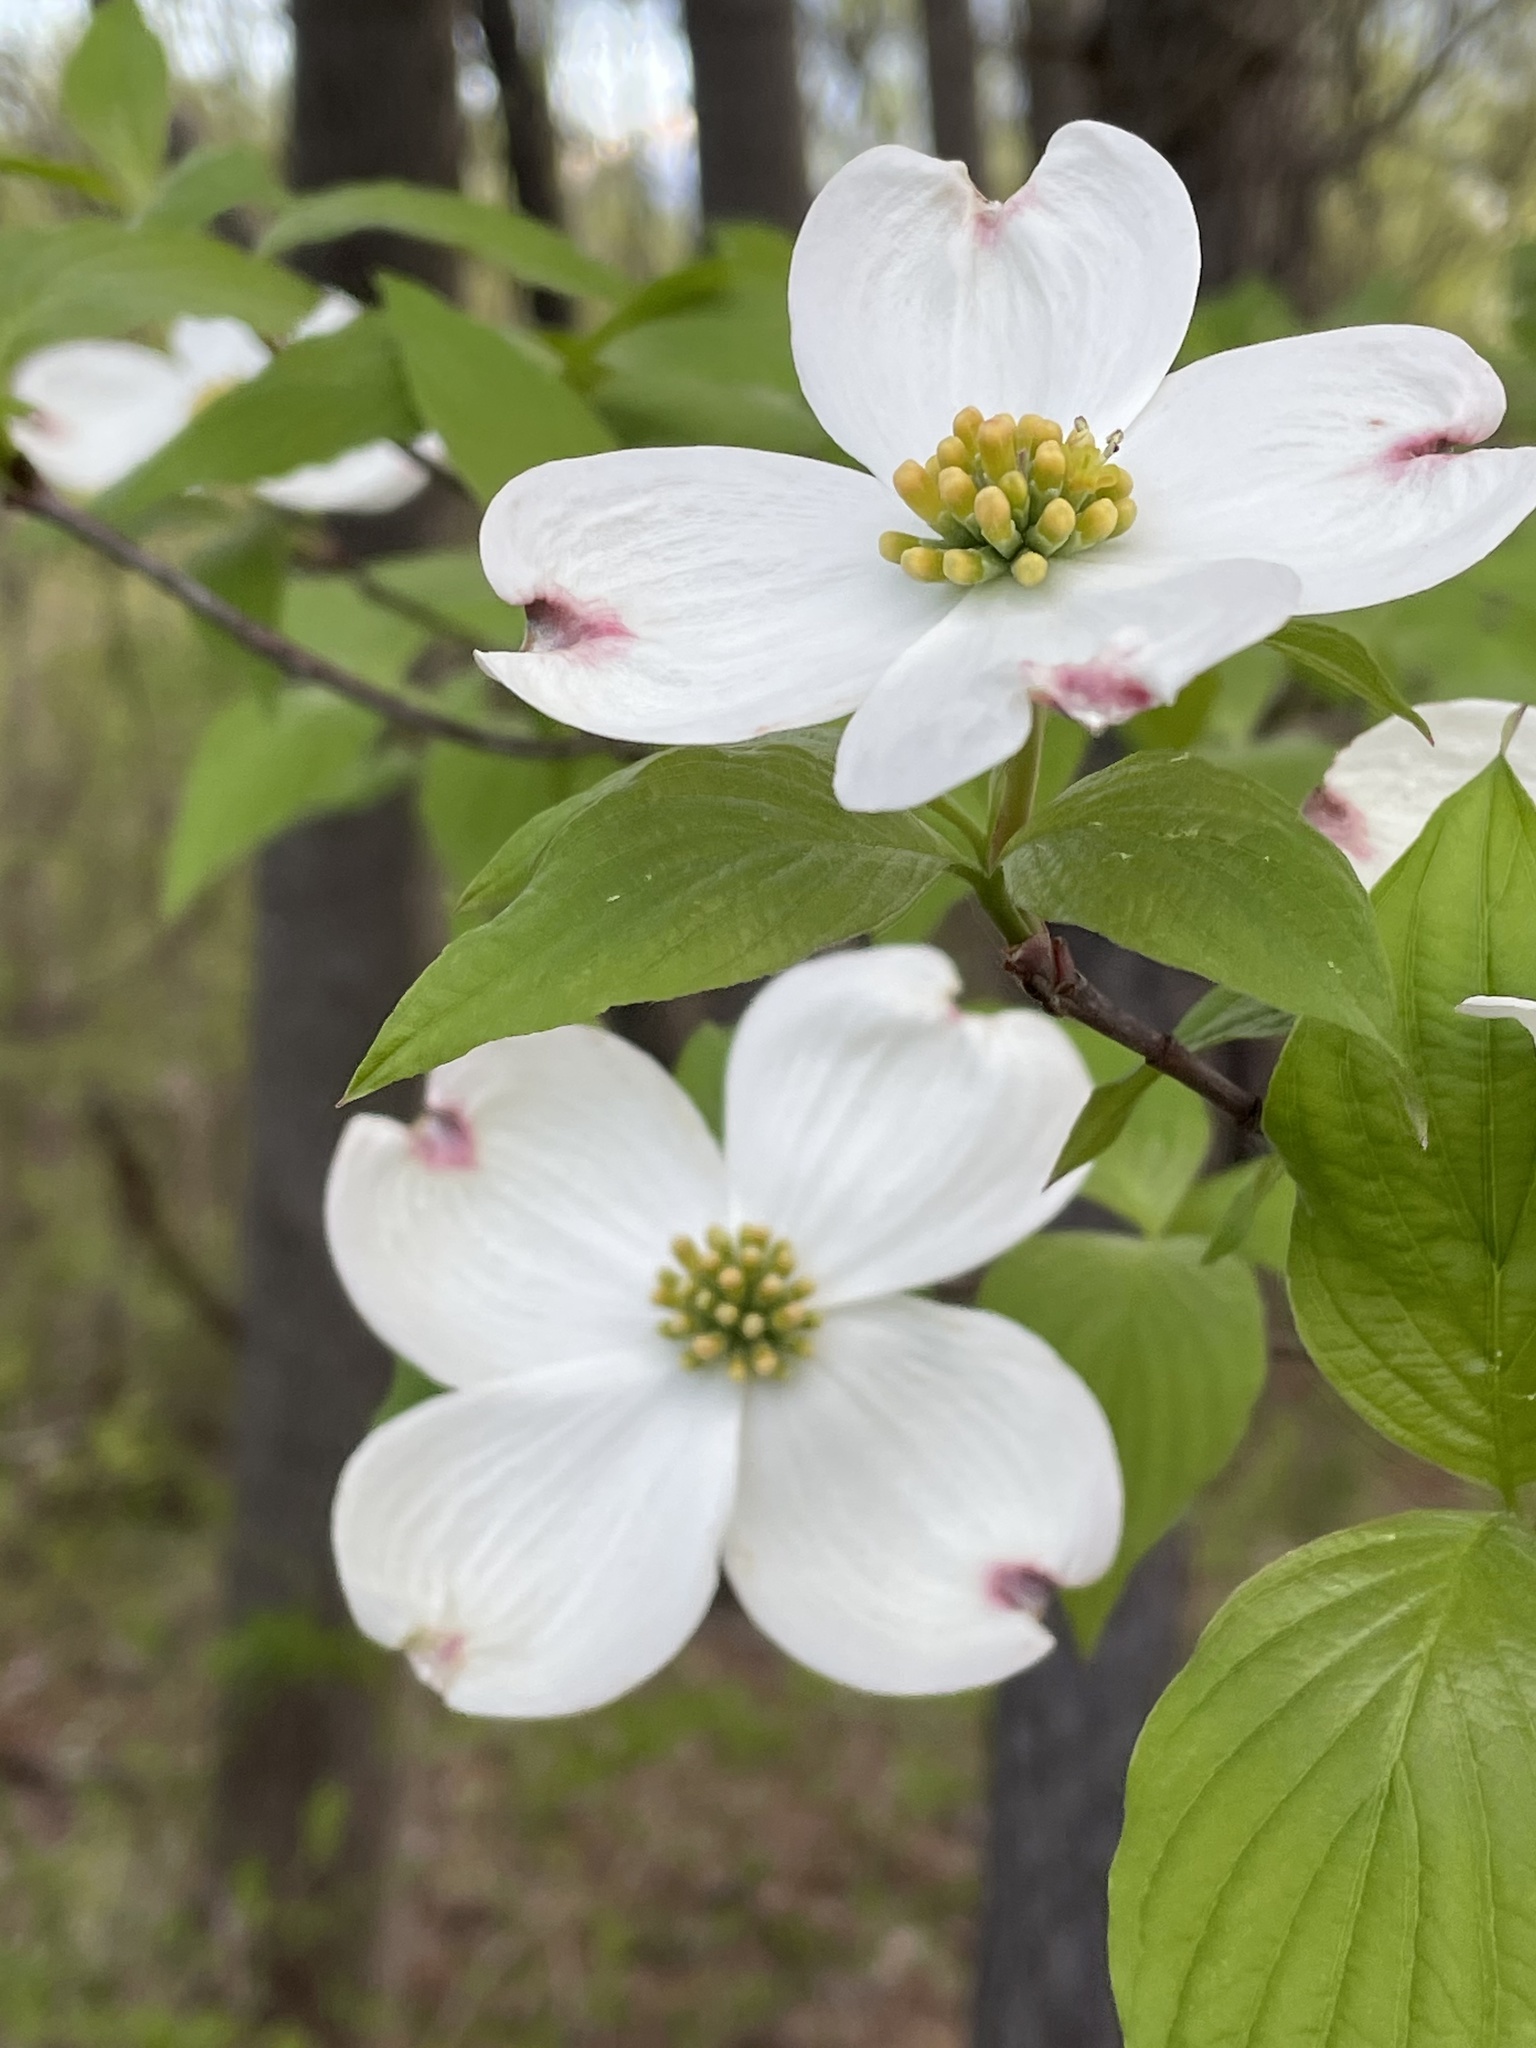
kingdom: Plantae
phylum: Tracheophyta
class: Magnoliopsida
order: Cornales
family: Cornaceae
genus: Cornus
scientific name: Cornus florida
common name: Flowering dogwood
